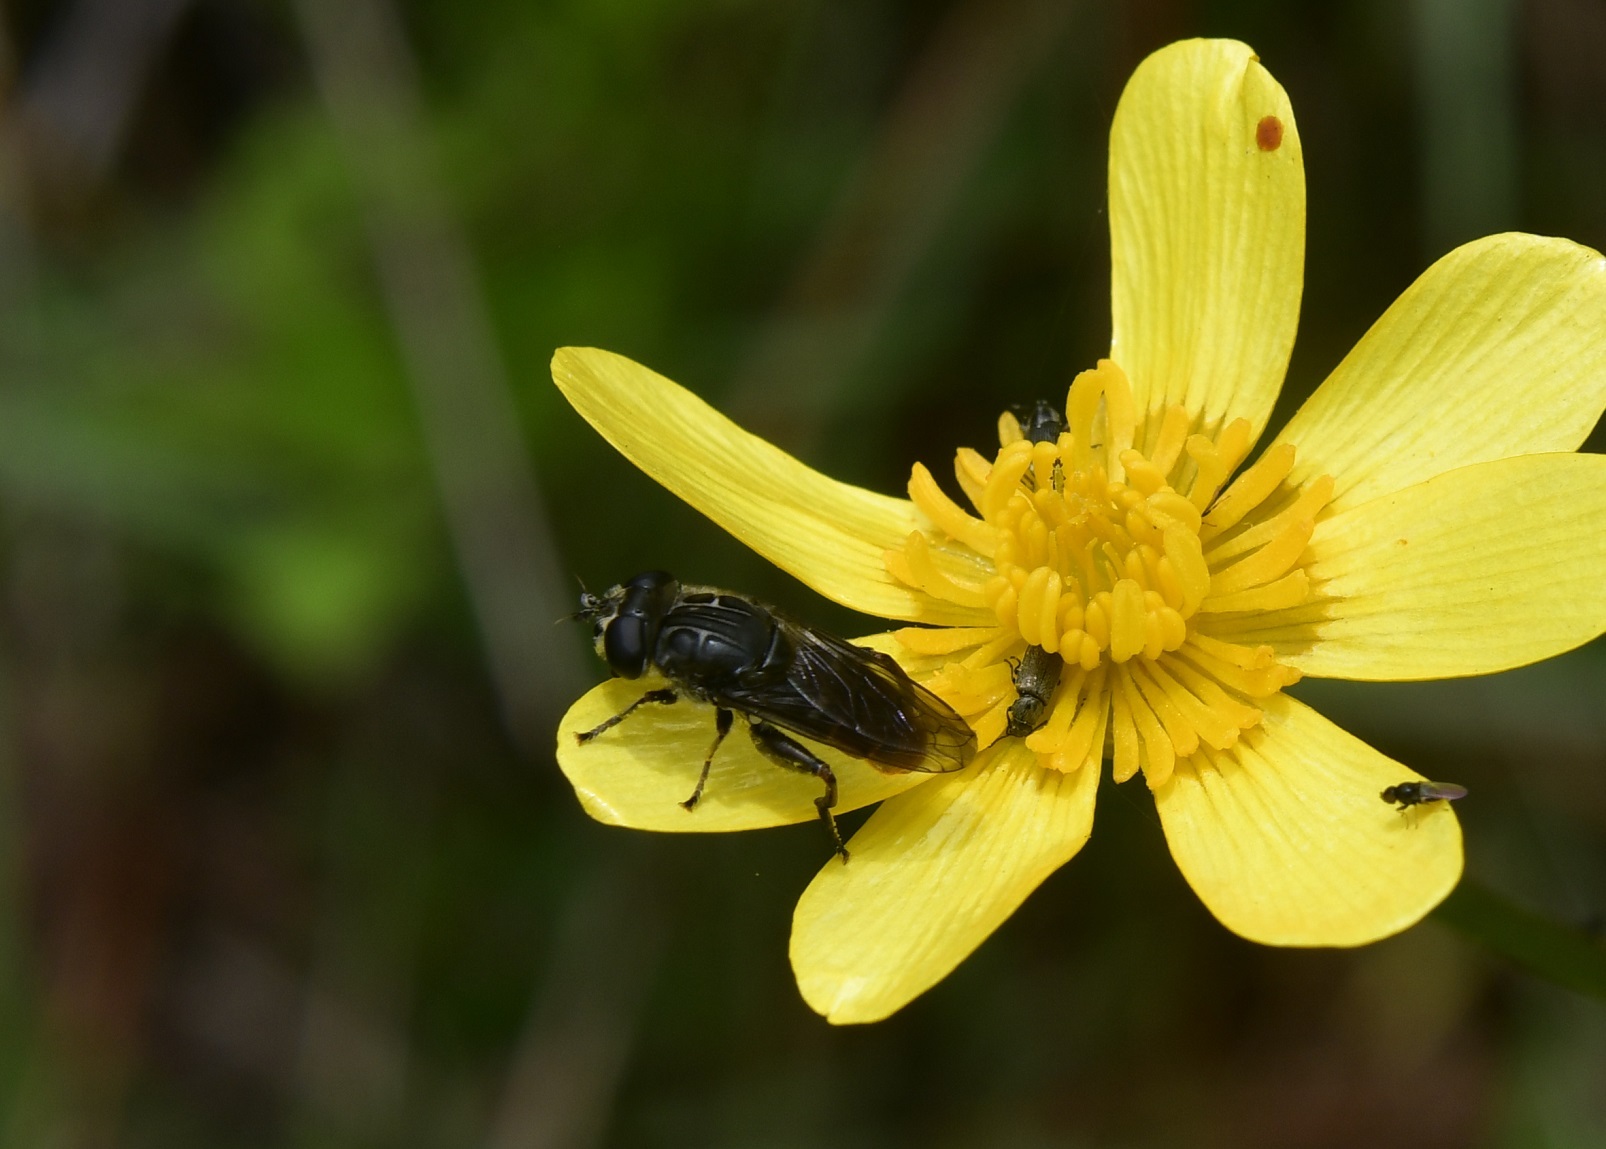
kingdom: Animalia
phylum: Arthropoda
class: Insecta
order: Diptera
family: Syrphidae
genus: Asemosyrphus
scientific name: Asemosyrphus
